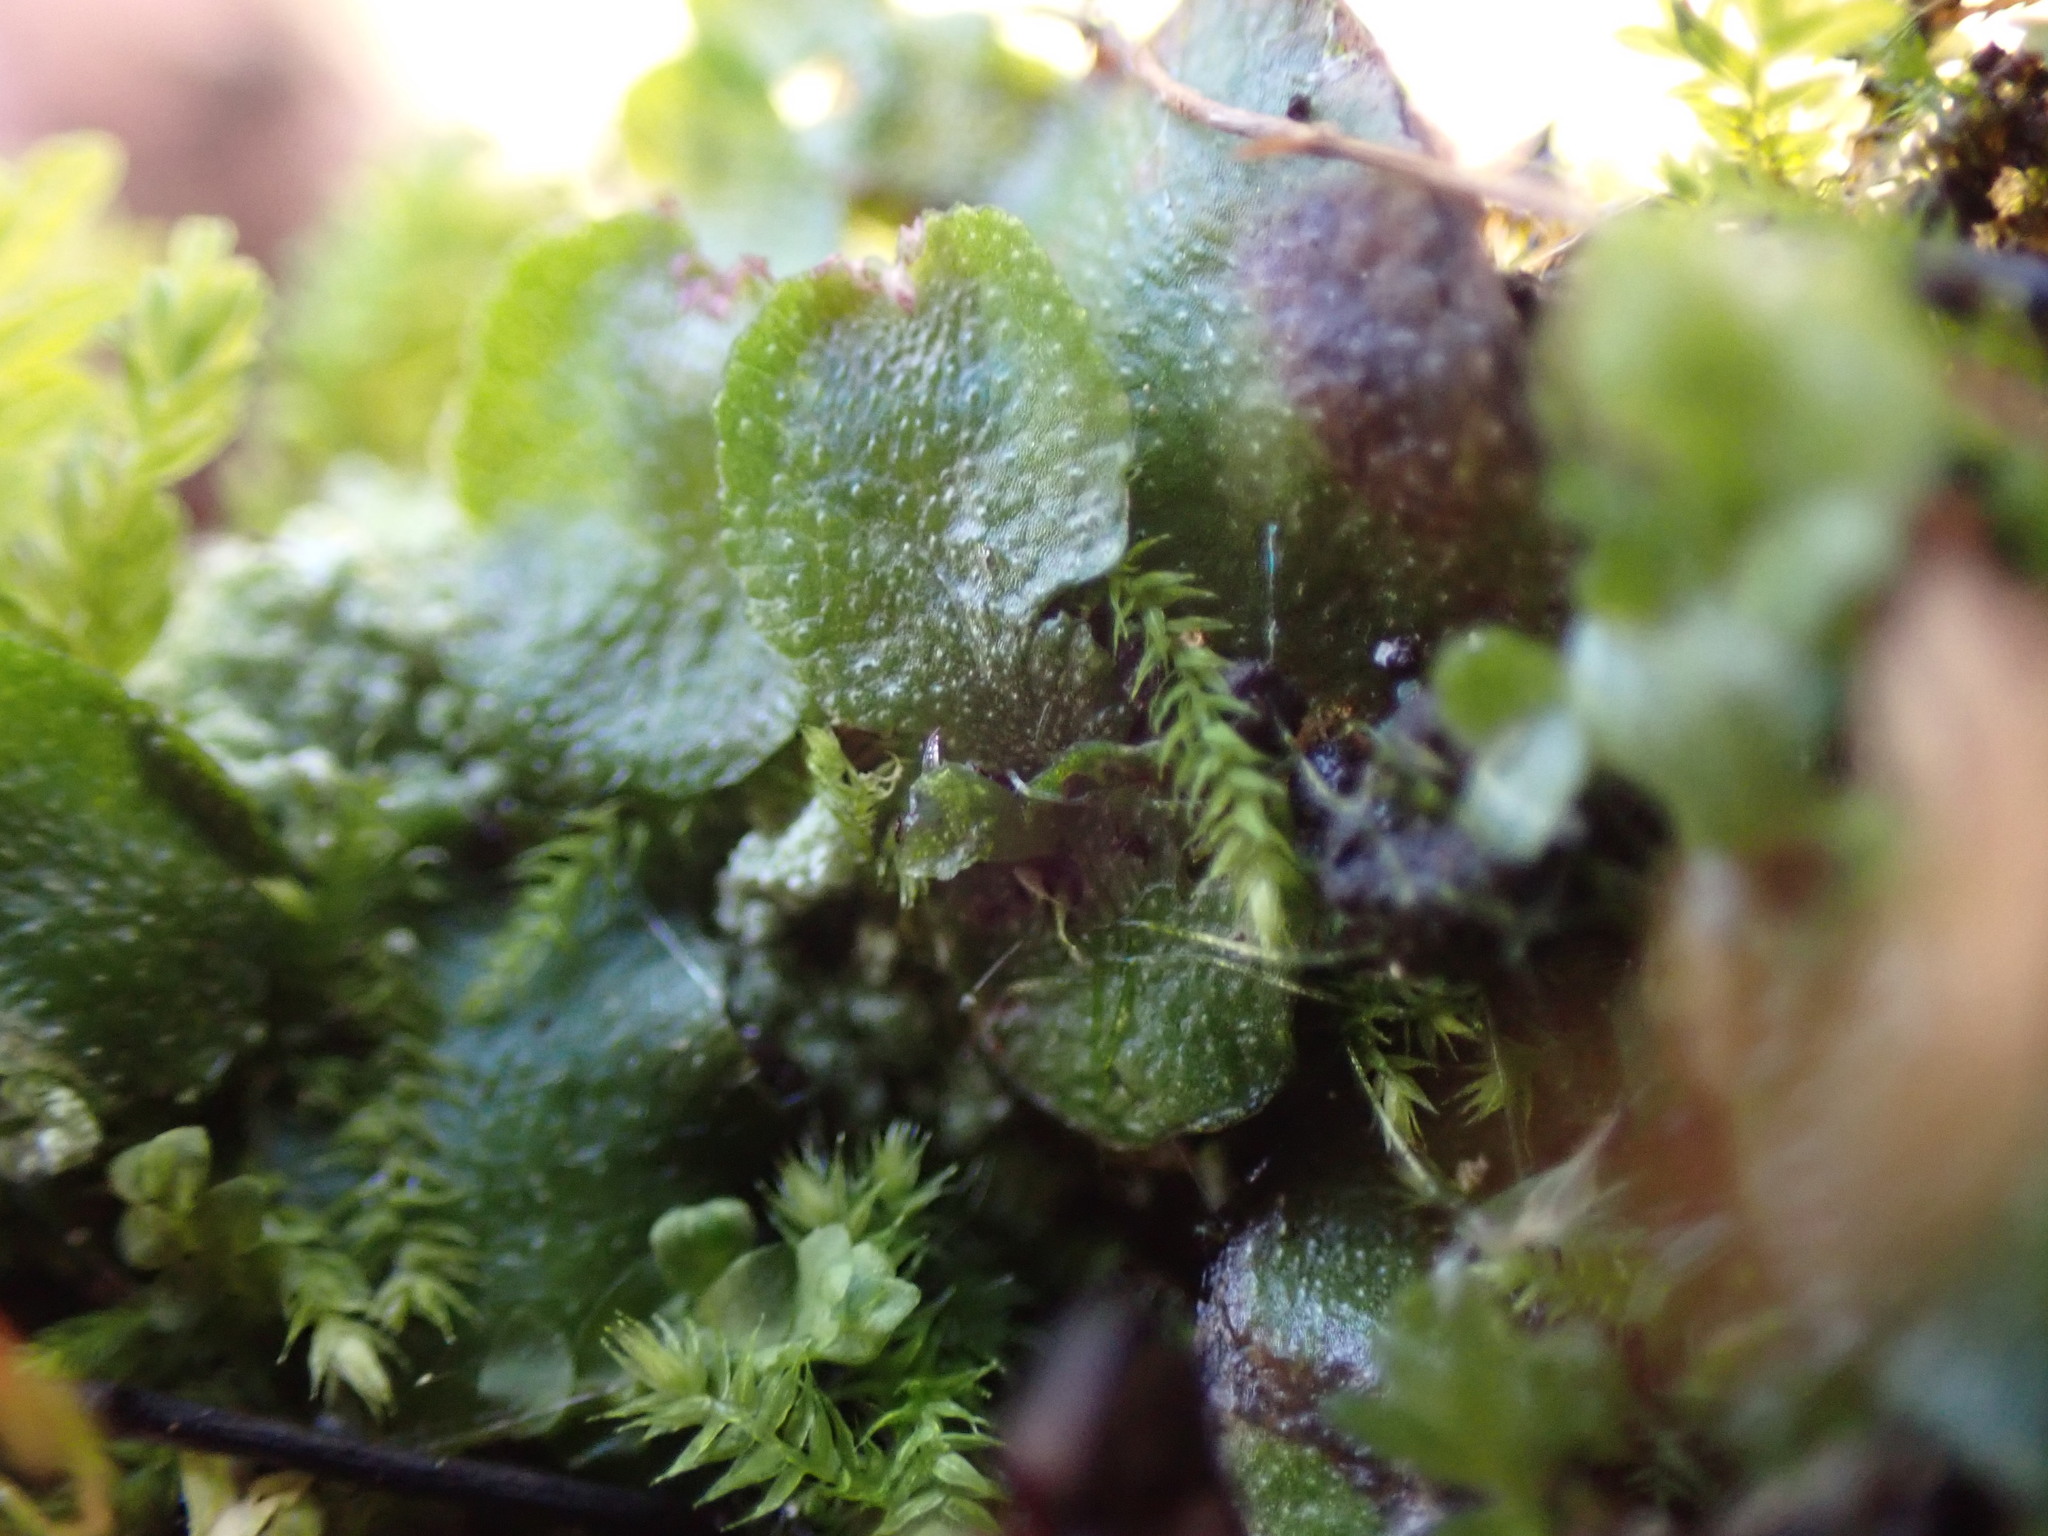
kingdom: Plantae
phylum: Marchantiophyta
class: Marchantiopsida
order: Marchantiales
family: Targioniaceae
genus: Targionia
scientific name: Targionia hypophylla
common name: Orobus-seed liverwort
